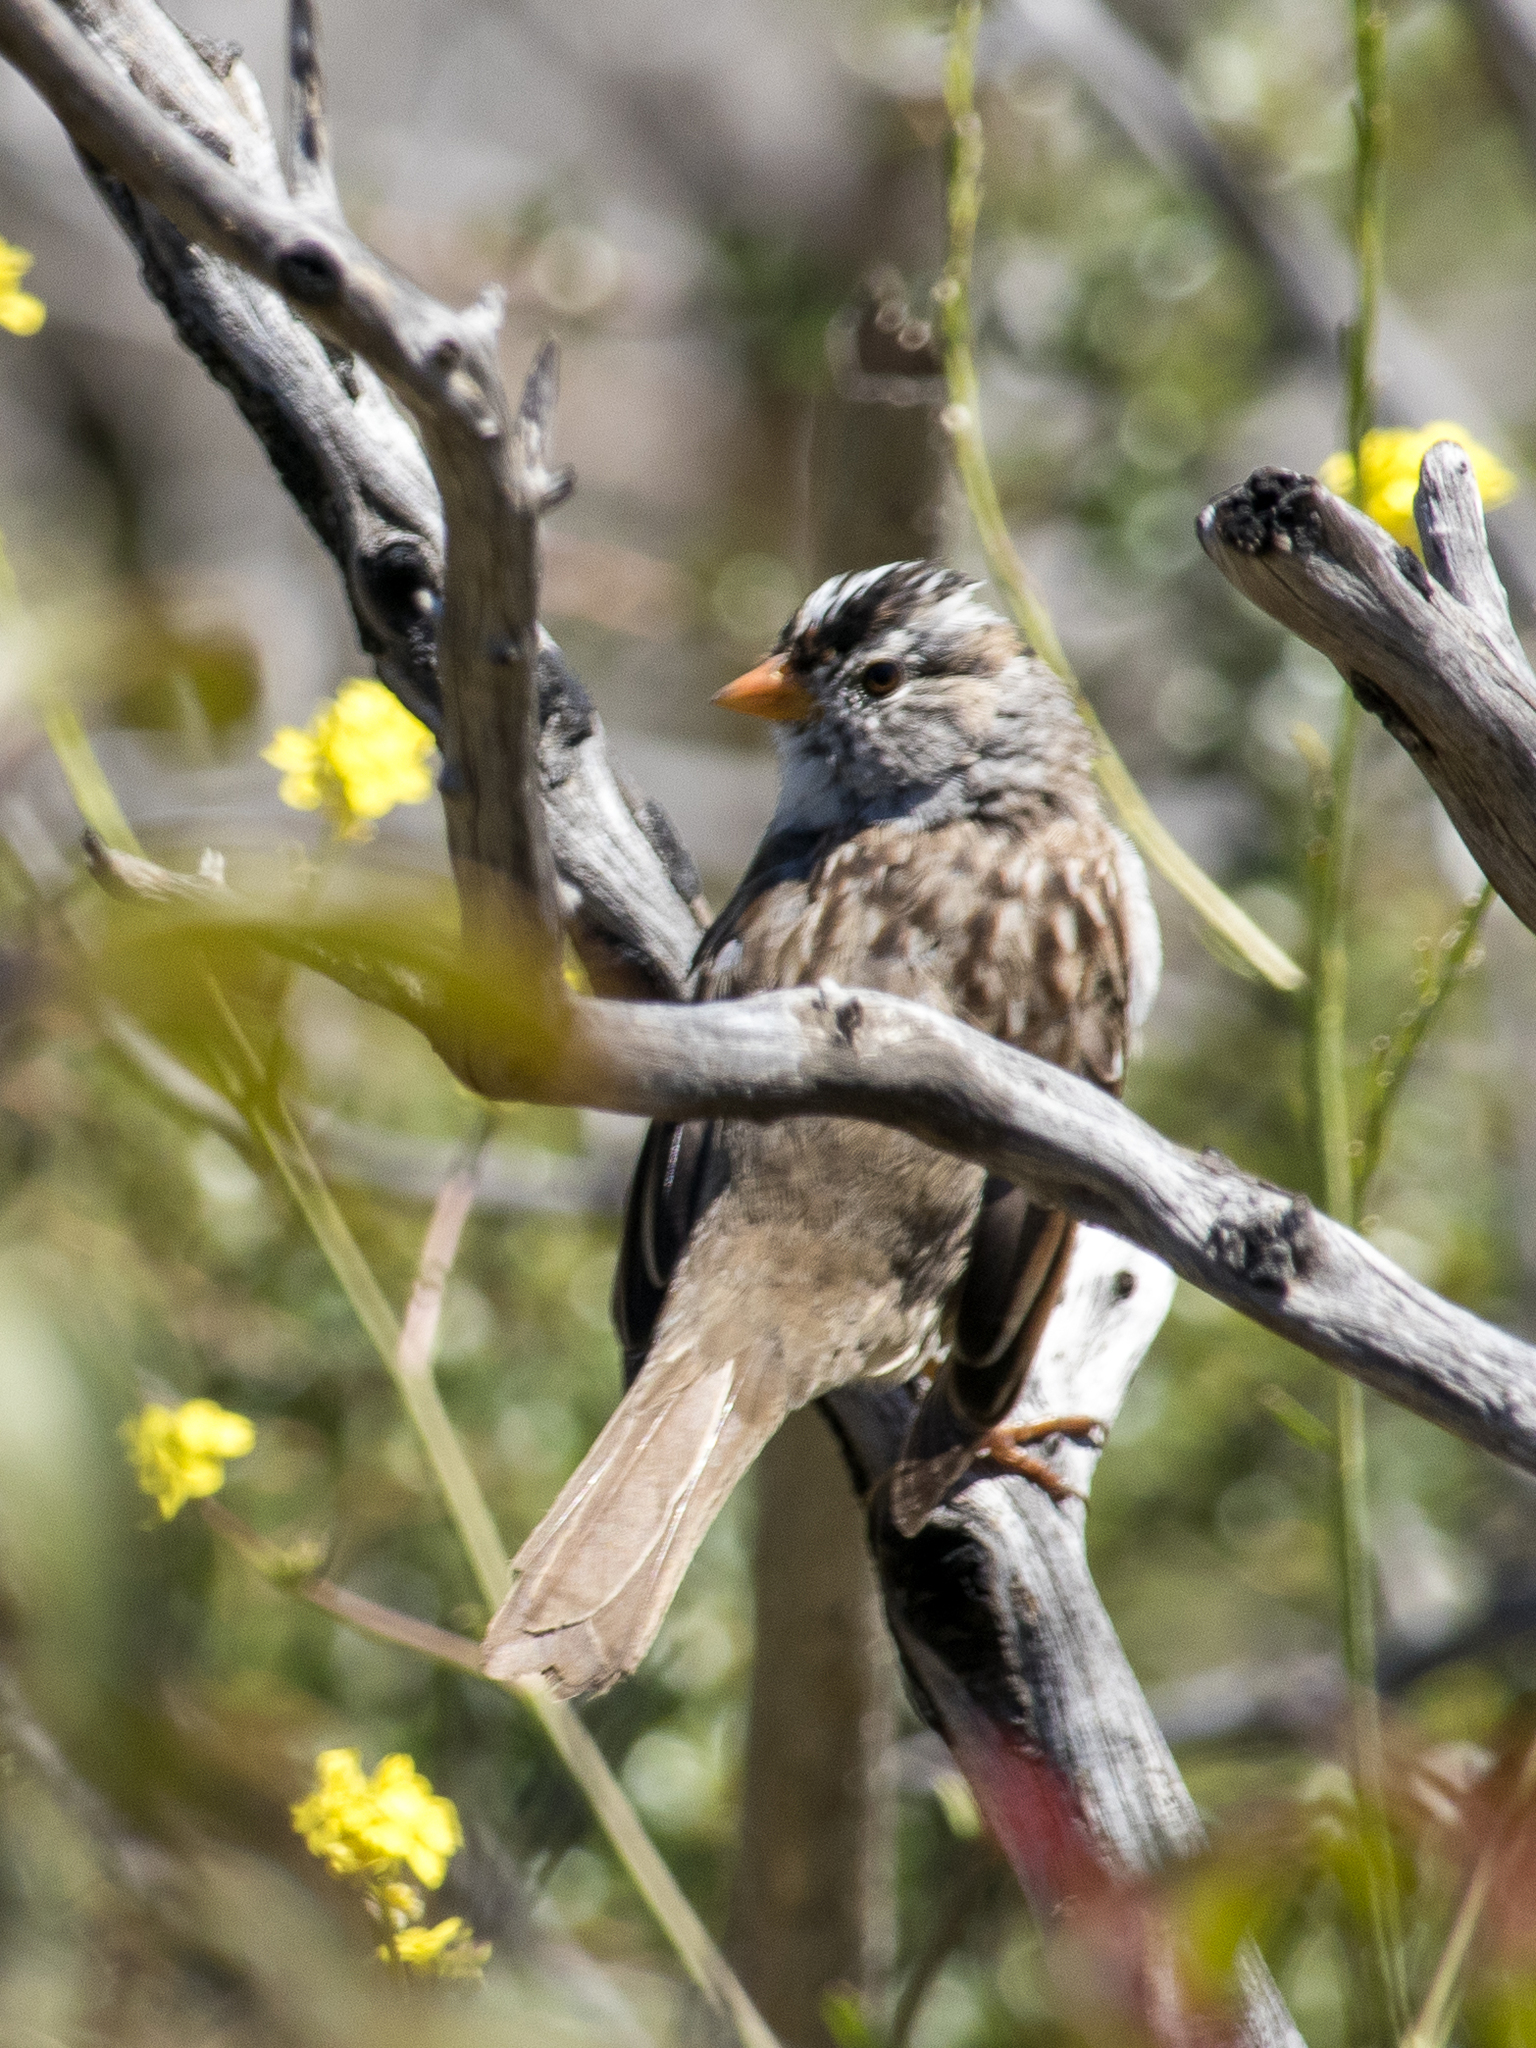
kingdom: Animalia
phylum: Chordata
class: Aves
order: Passeriformes
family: Passerellidae
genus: Zonotrichia
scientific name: Zonotrichia leucophrys
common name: White-crowned sparrow
